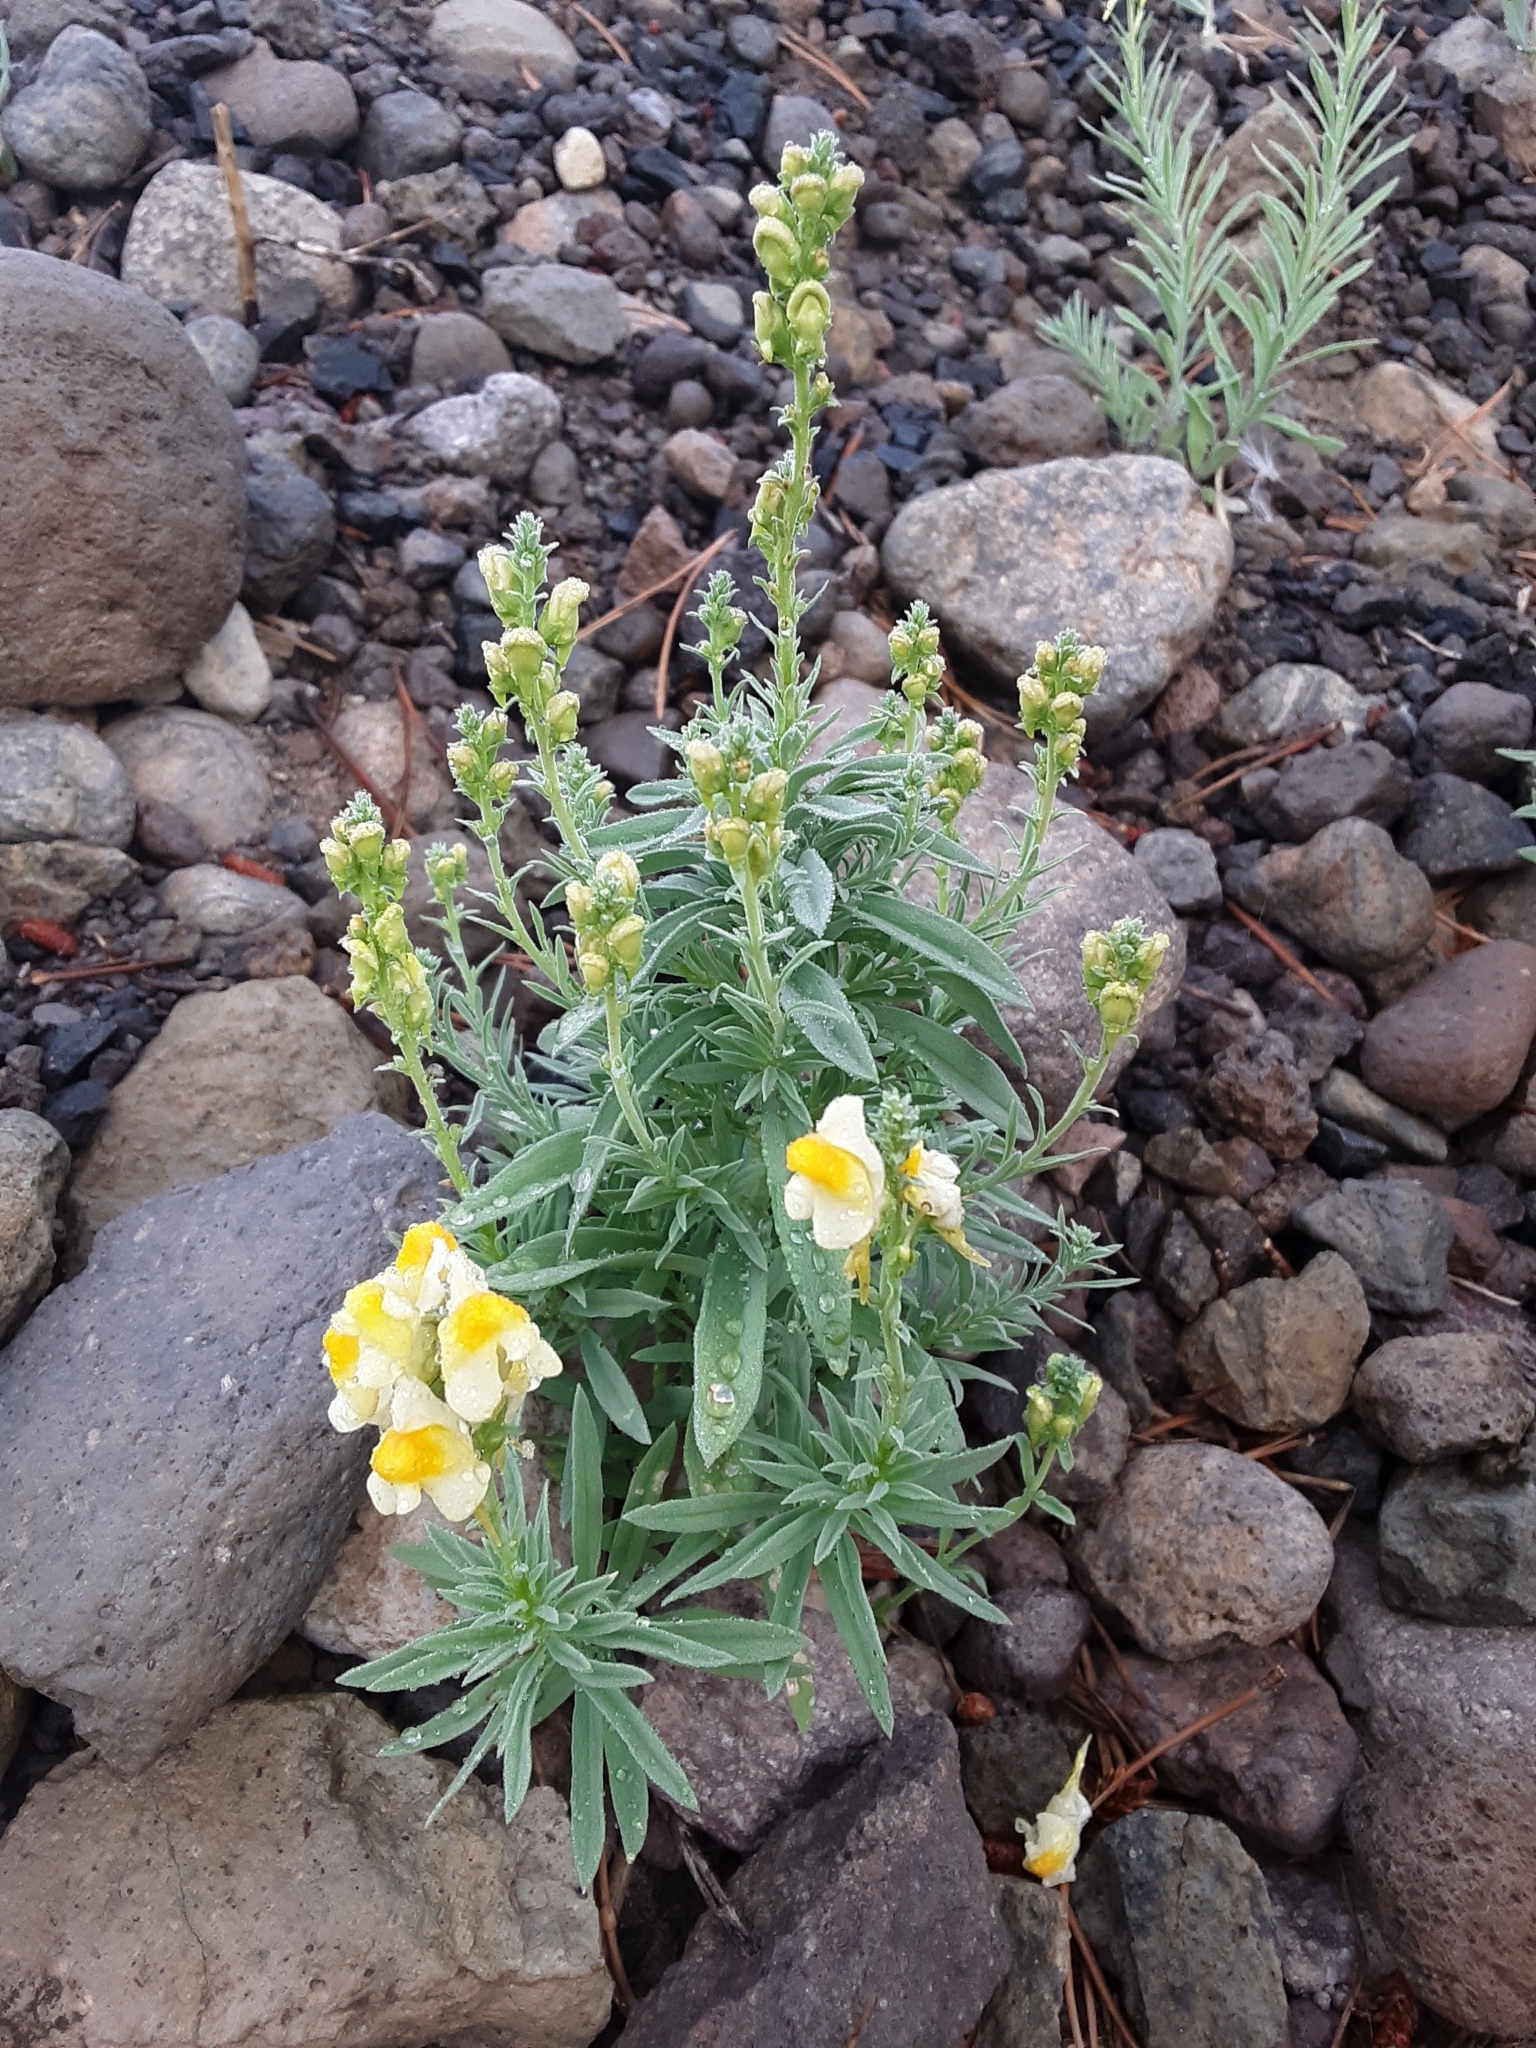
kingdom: Plantae
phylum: Tracheophyta
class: Magnoliopsida
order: Lamiales
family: Plantaginaceae
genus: Linaria
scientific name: Linaria vulgaris
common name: Butter and eggs
